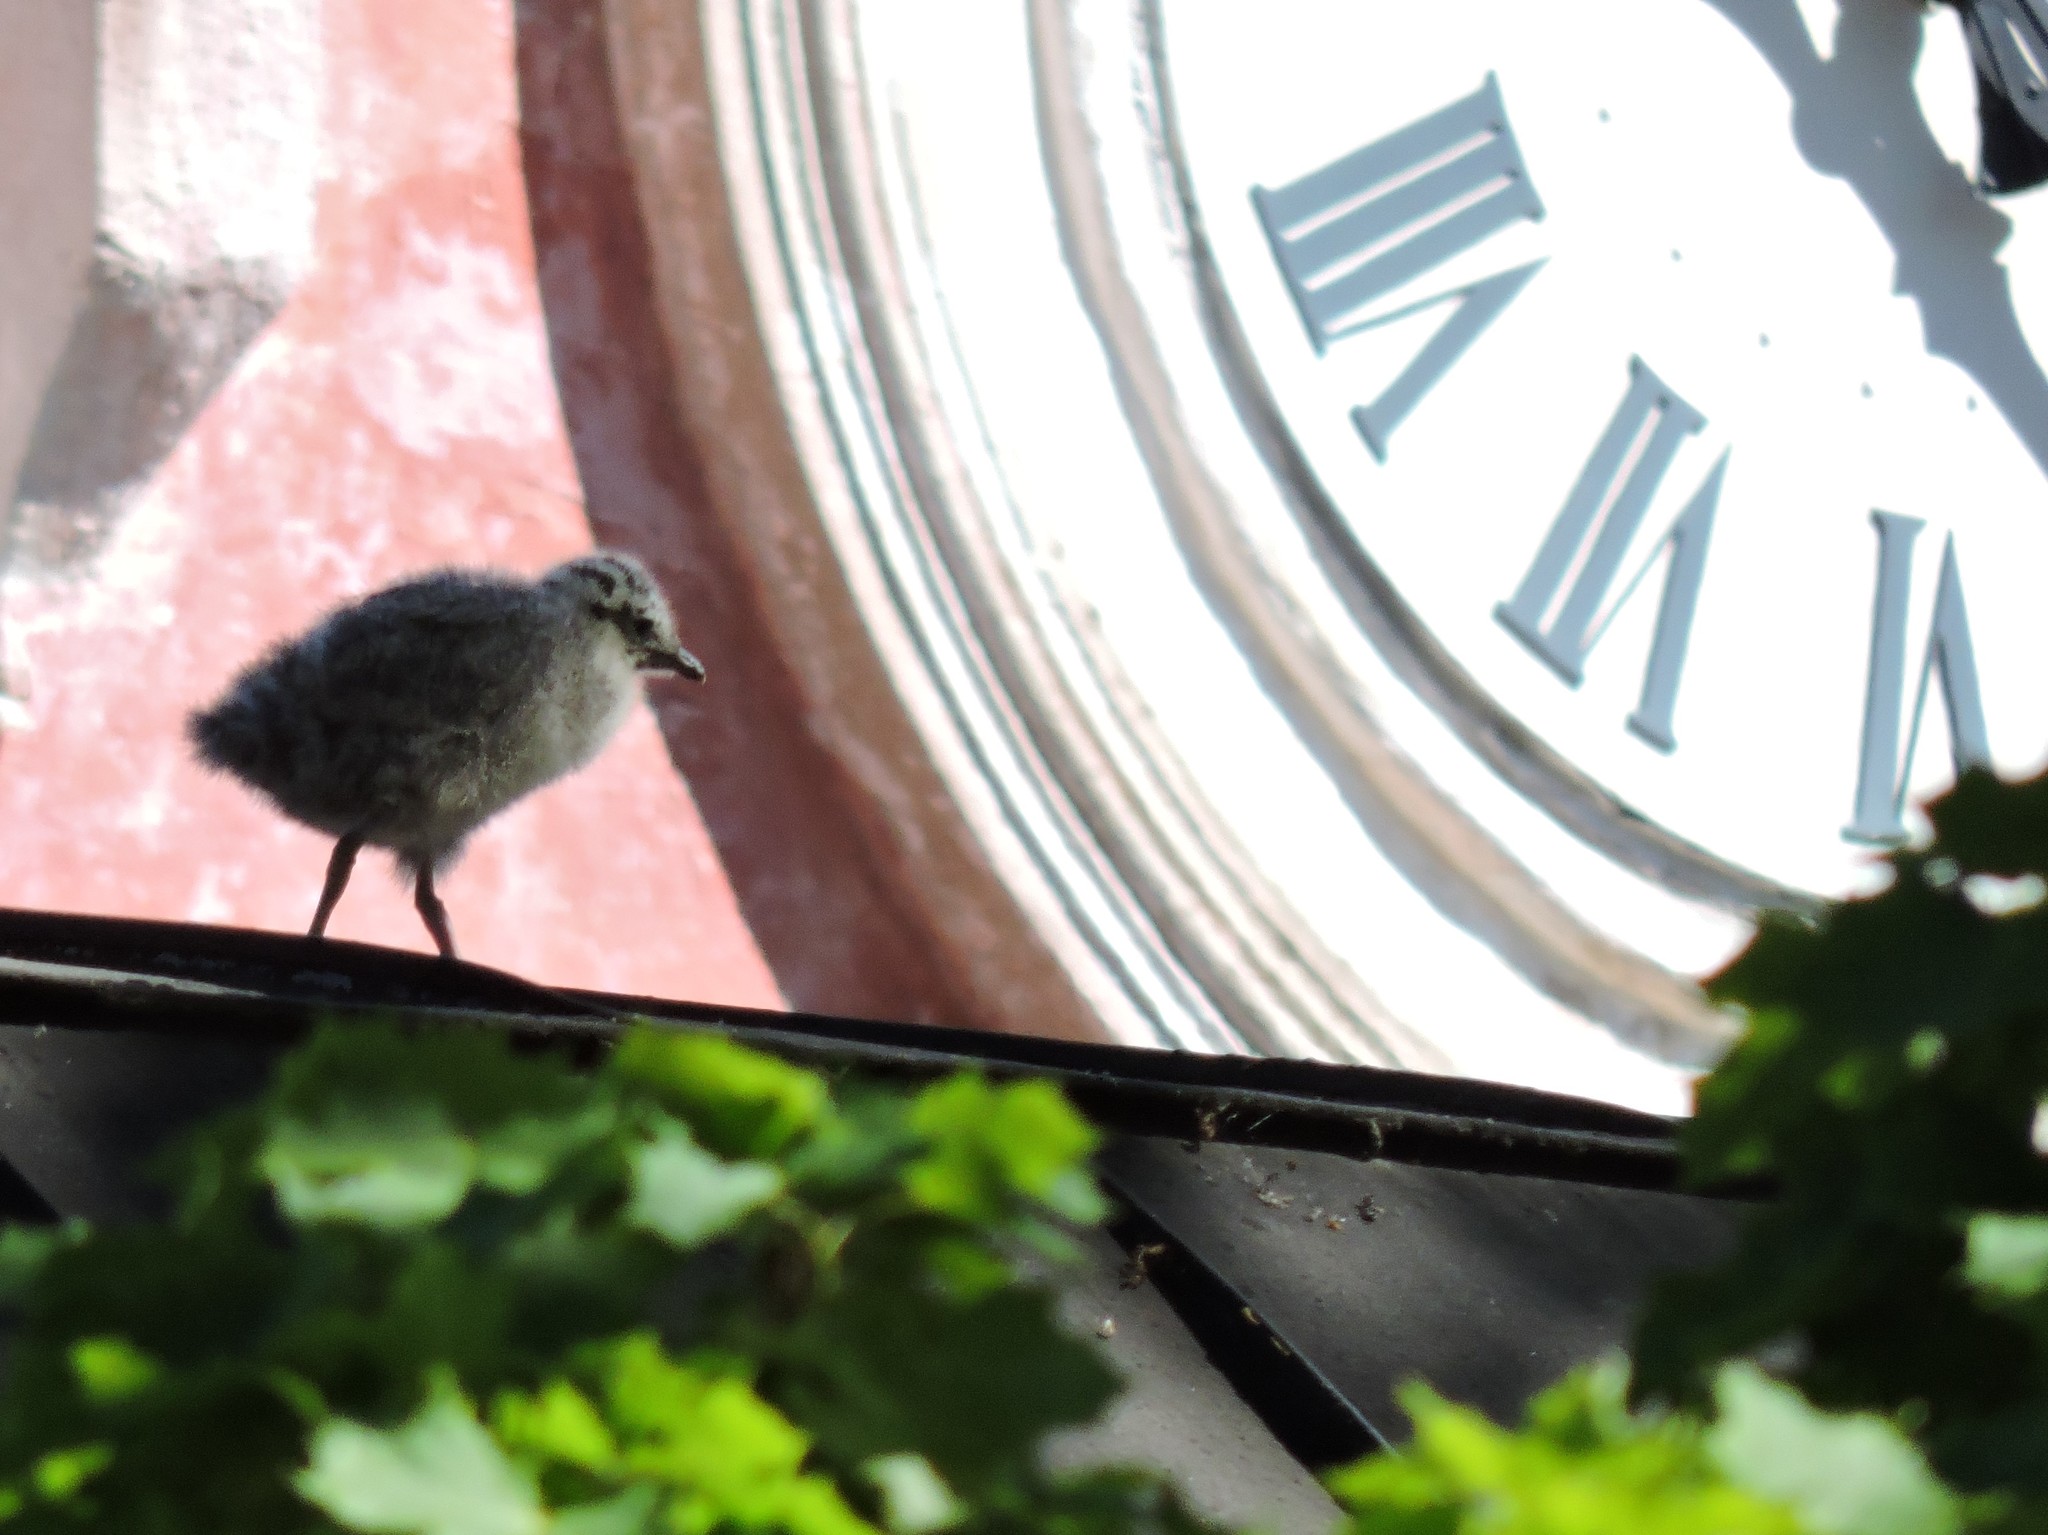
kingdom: Animalia
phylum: Chordata
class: Aves
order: Charadriiformes
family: Laridae
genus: Larus
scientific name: Larus canus
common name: Mew gull
